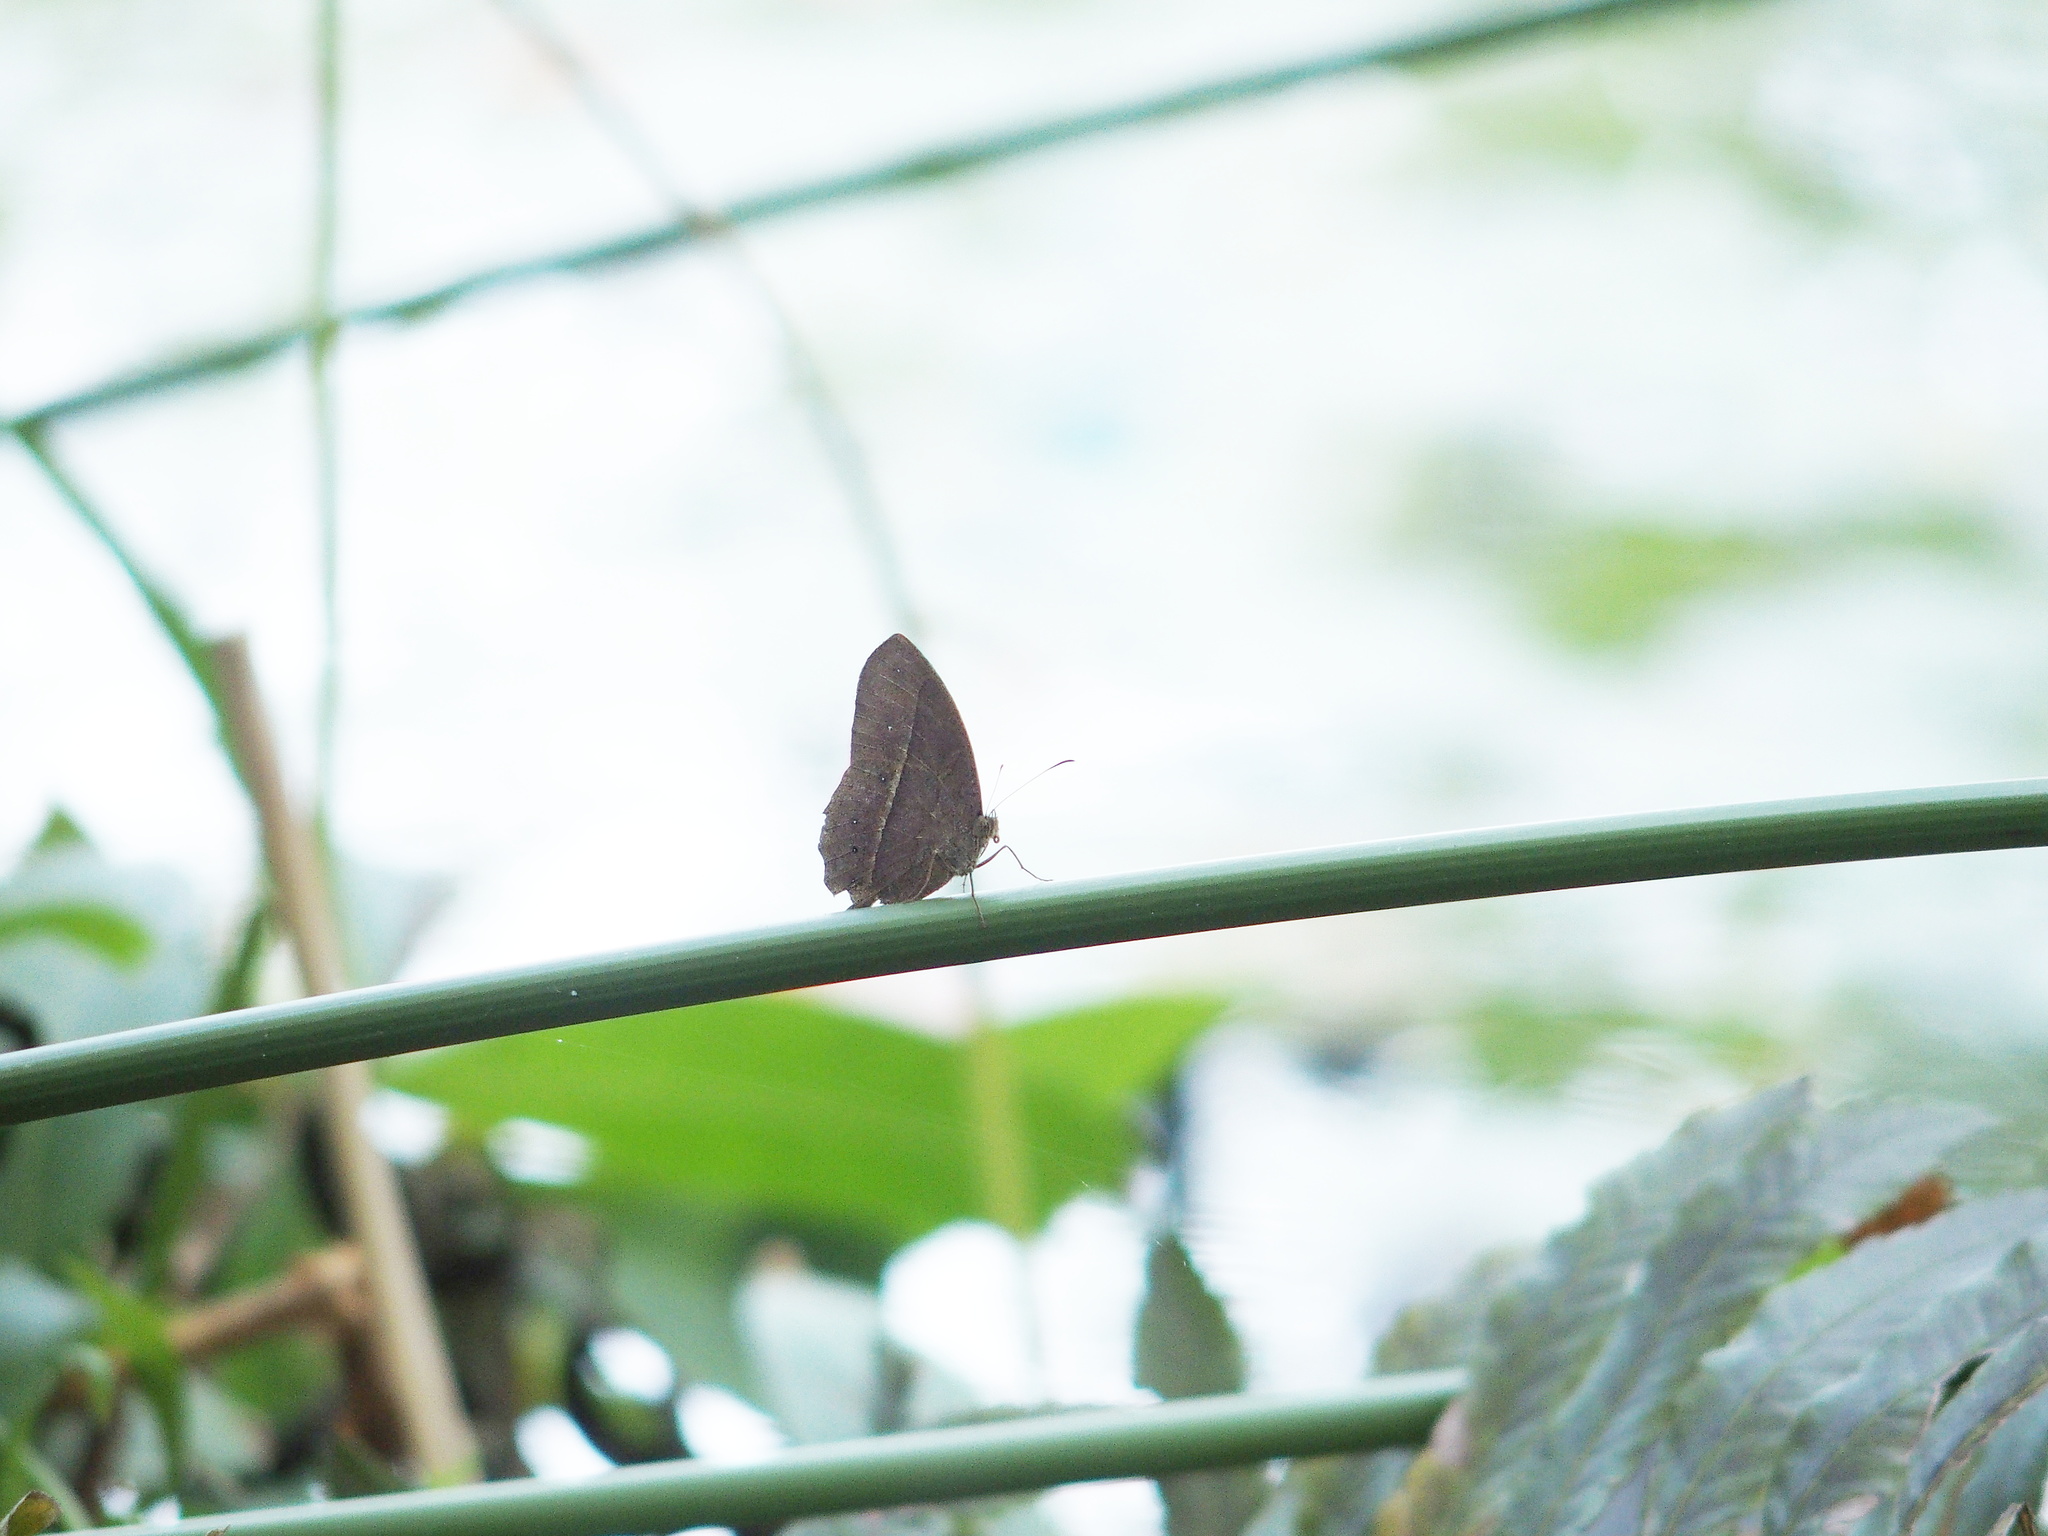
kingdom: Animalia
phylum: Arthropoda
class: Insecta
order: Lepidoptera
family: Nymphalidae
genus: Mycalesis
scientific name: Mycalesis horsfieldii
